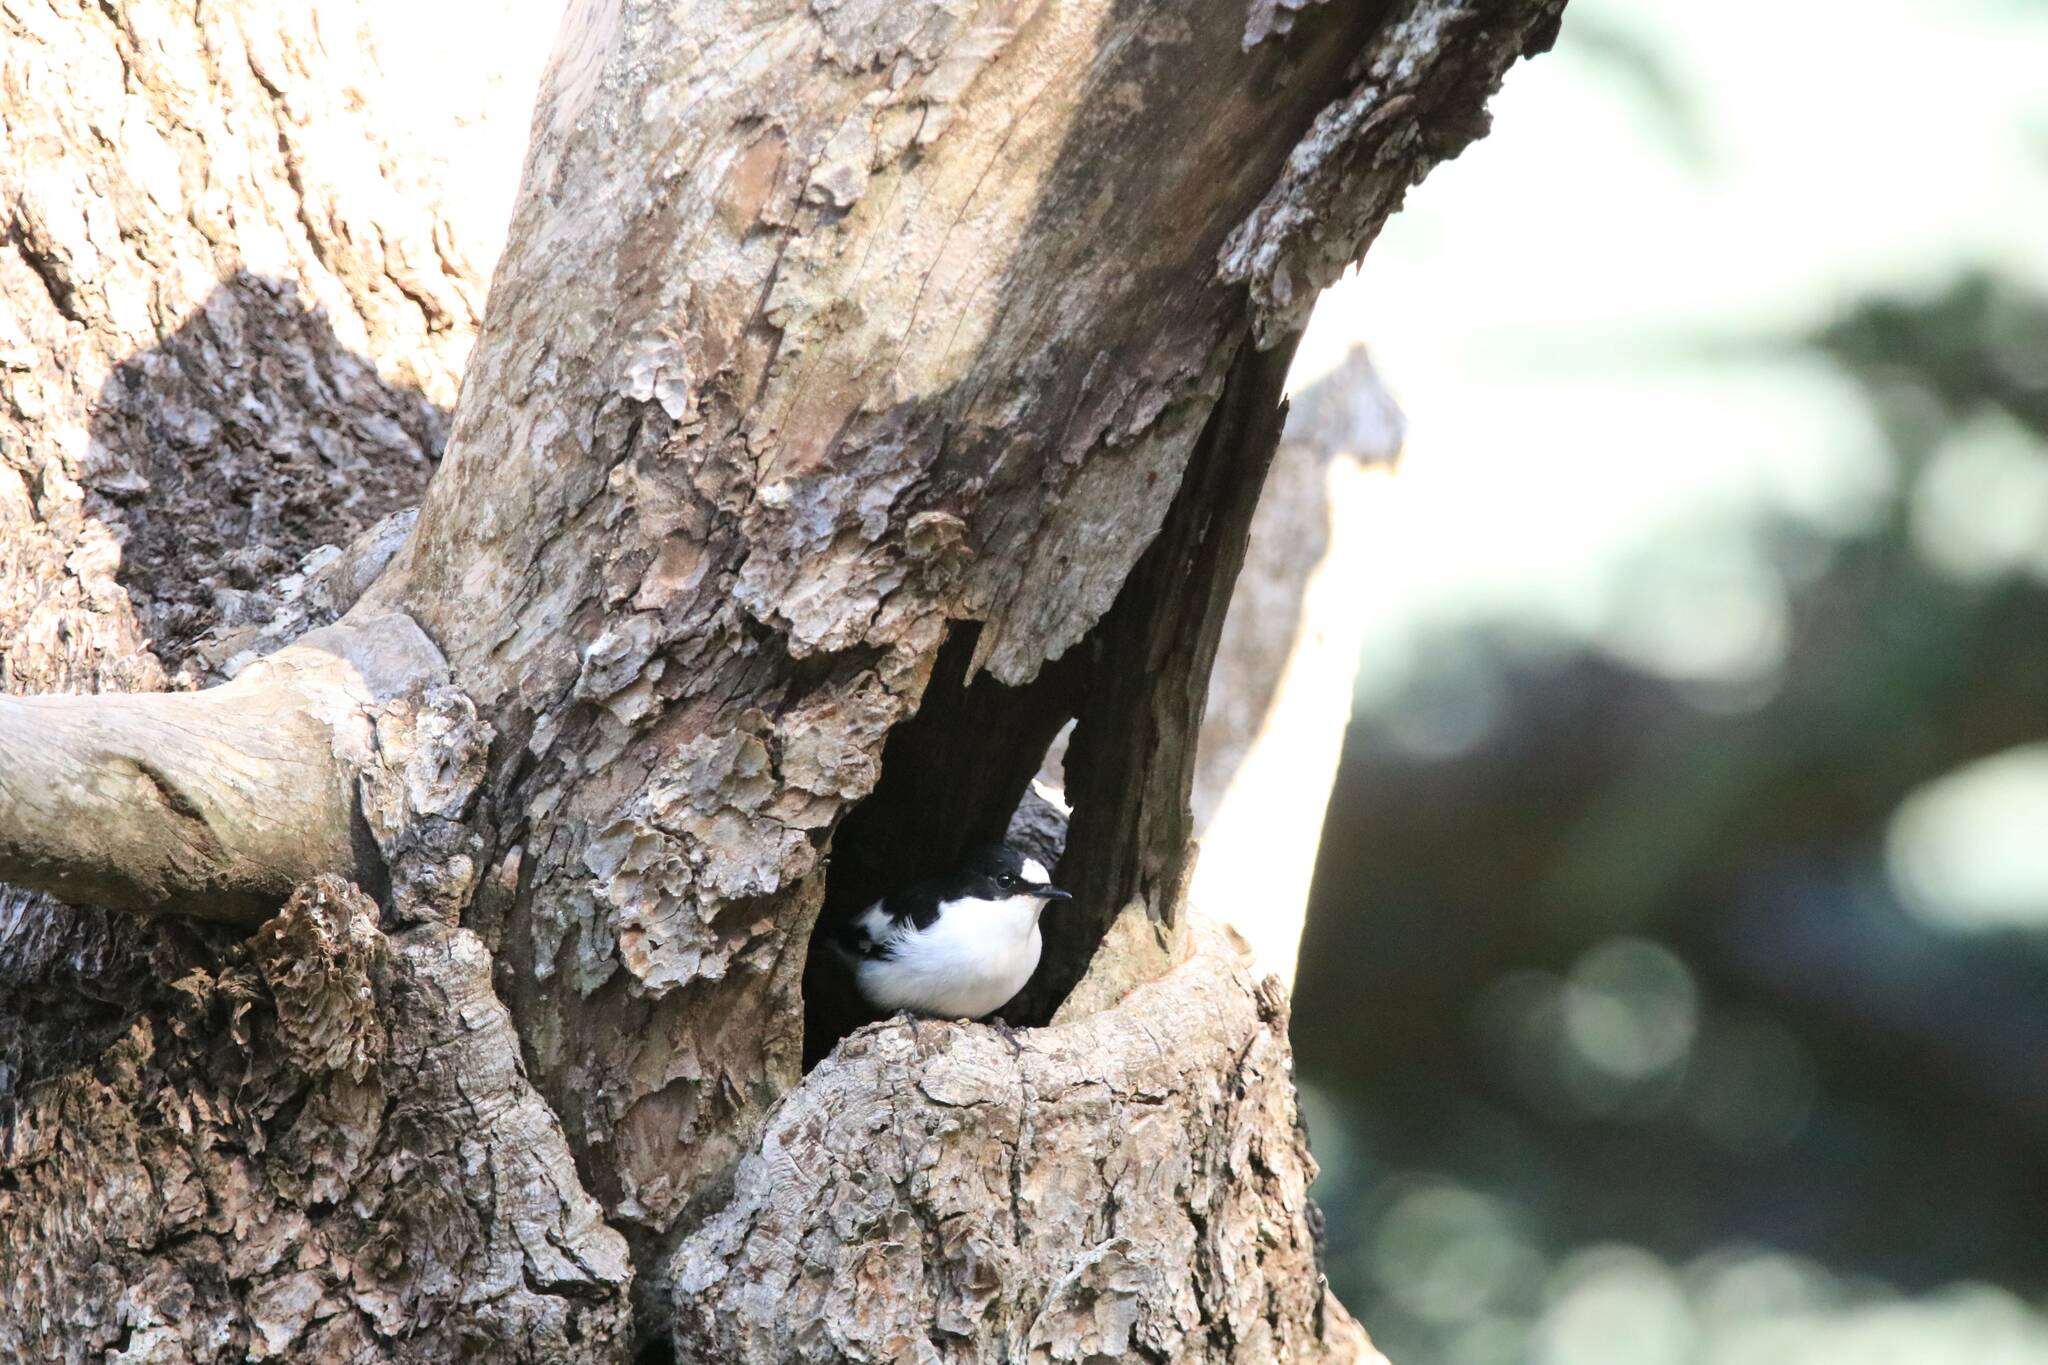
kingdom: Animalia
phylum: Chordata
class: Aves
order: Passeriformes
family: Muscicapidae
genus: Ficedula
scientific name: Ficedula speculigera
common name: Atlas pied flycatcher
